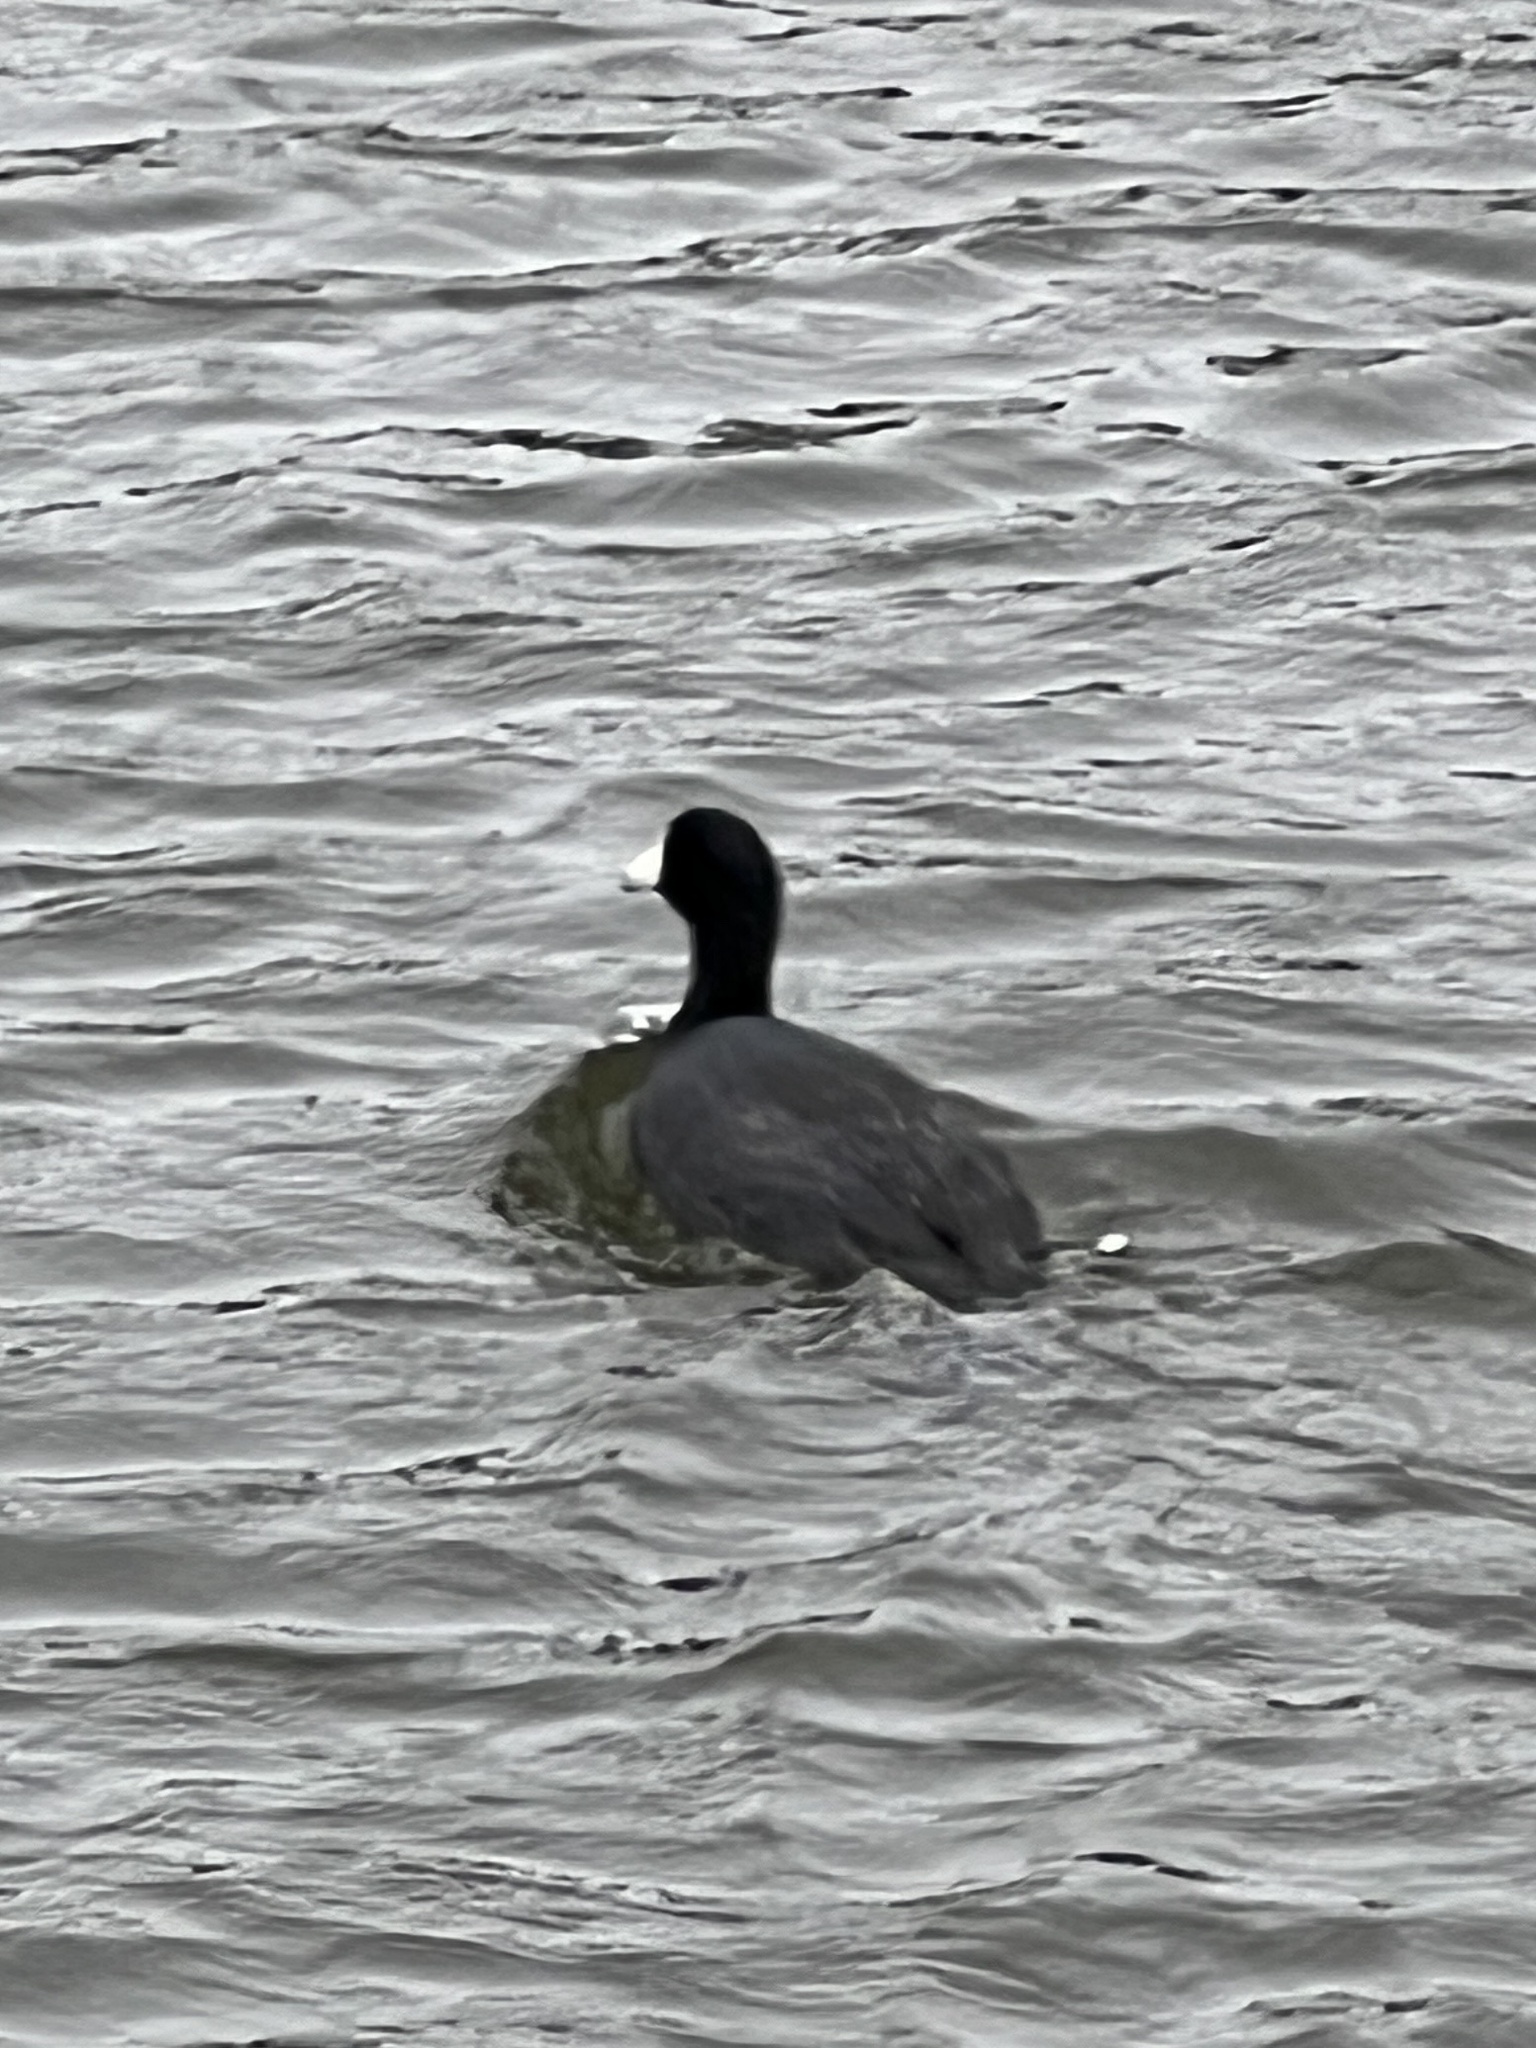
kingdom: Animalia
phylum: Chordata
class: Aves
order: Gruiformes
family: Rallidae
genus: Fulica
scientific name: Fulica americana
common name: American coot
